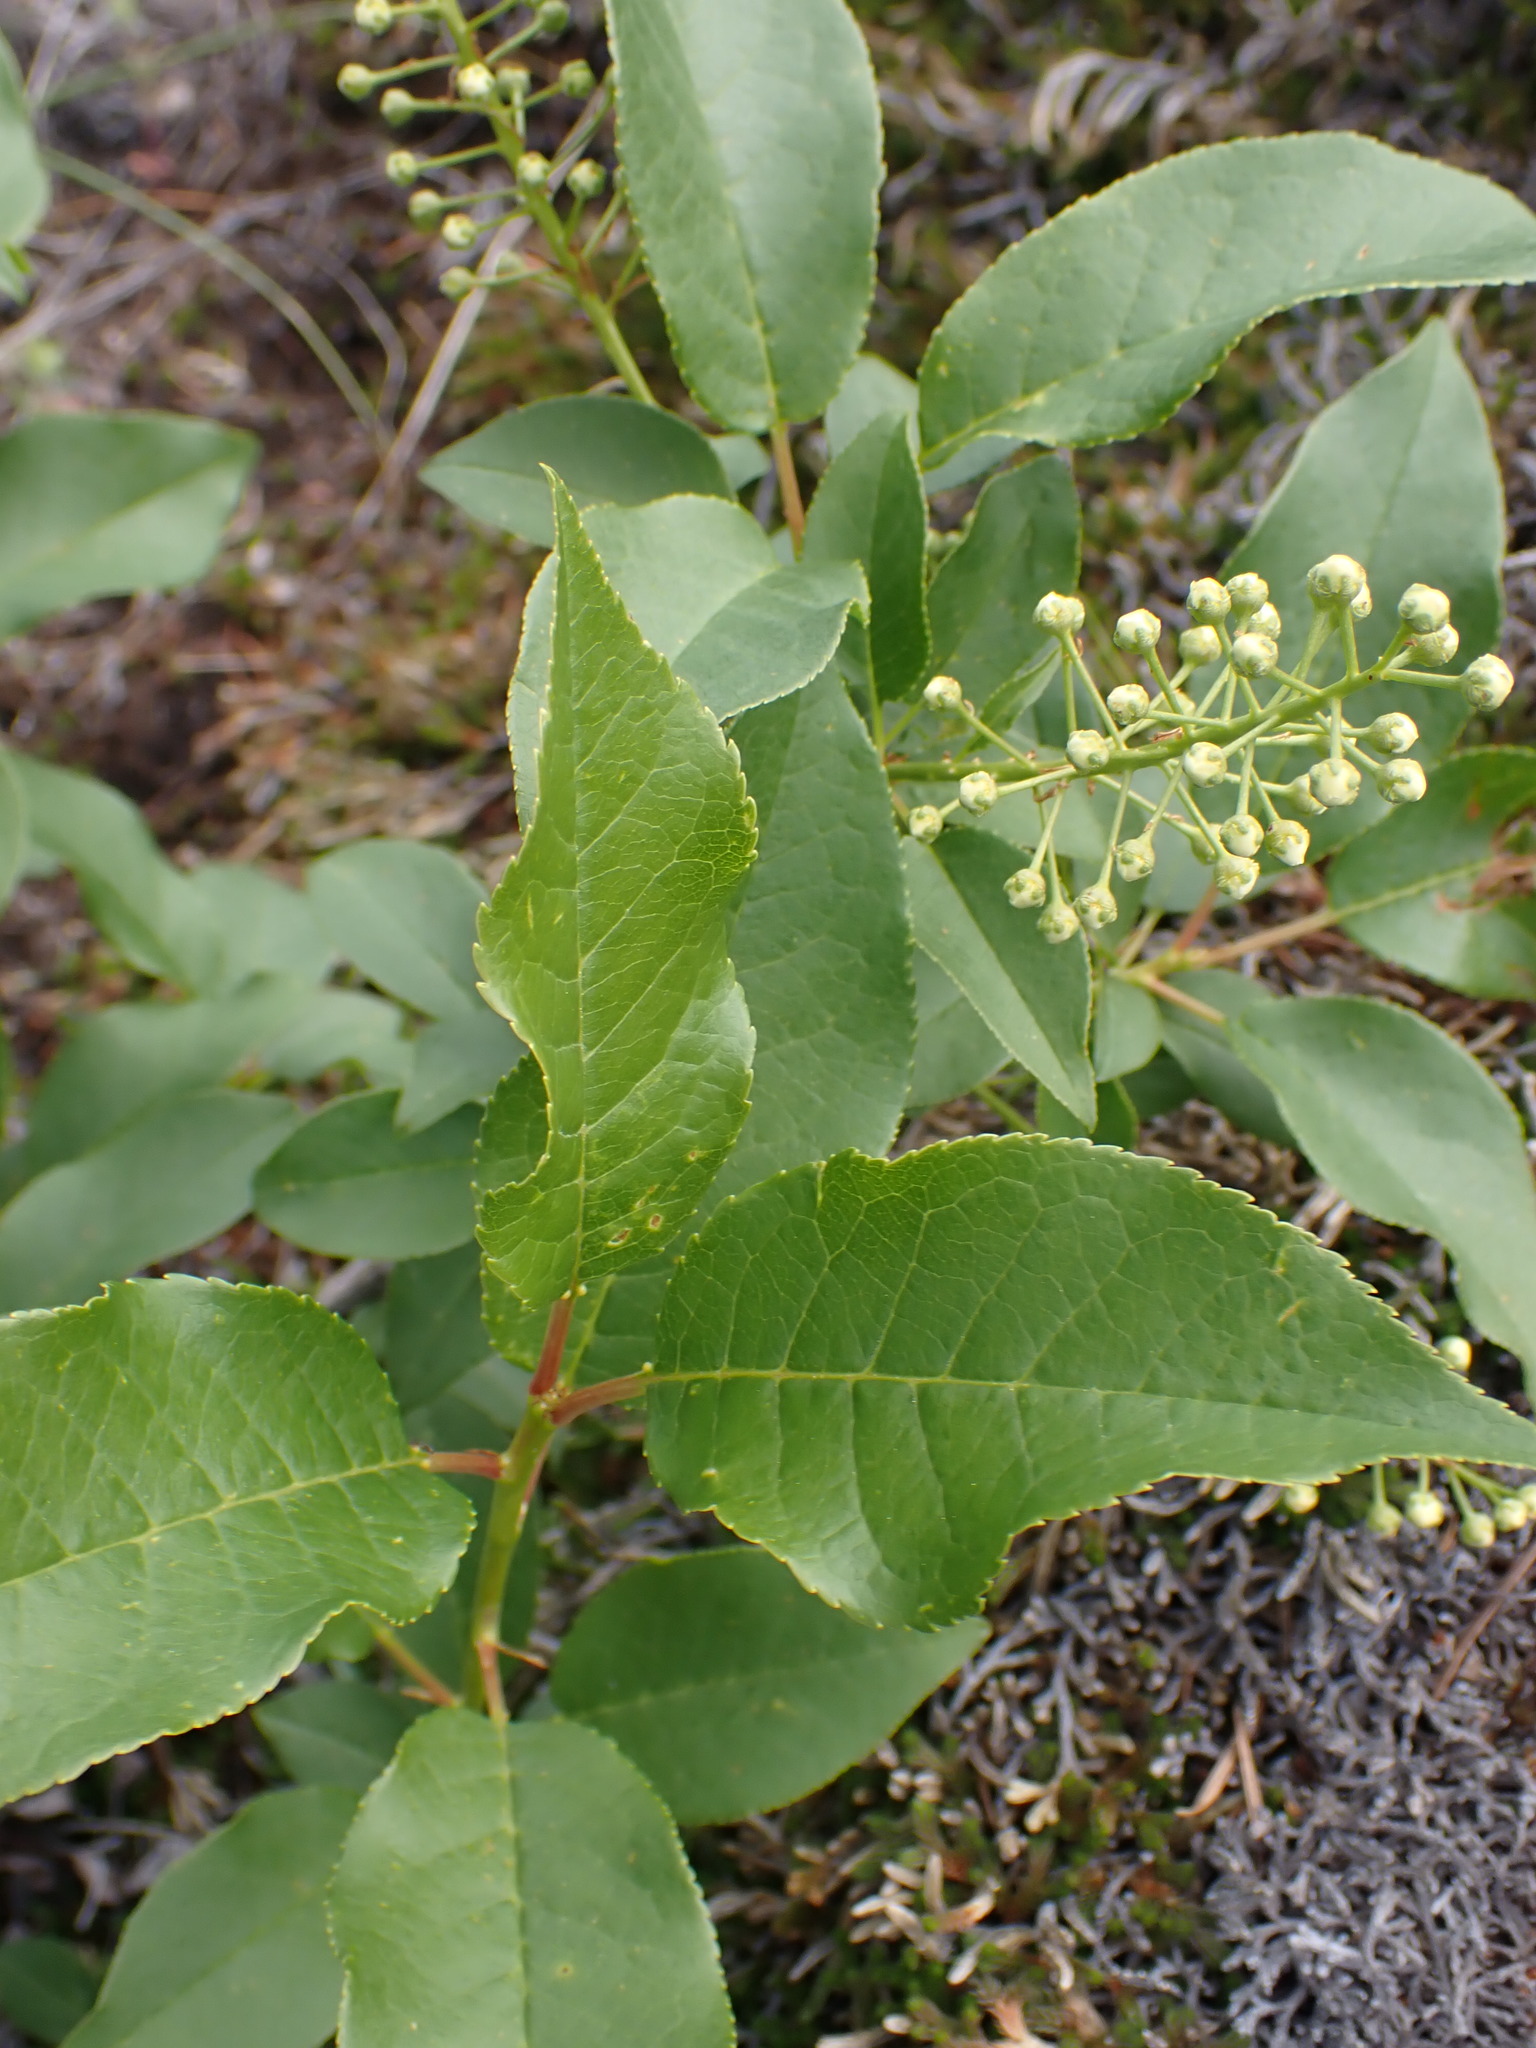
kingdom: Plantae
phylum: Tracheophyta
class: Magnoliopsida
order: Rosales
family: Rosaceae
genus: Prunus
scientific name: Prunus virginiana
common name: Chokecherry
